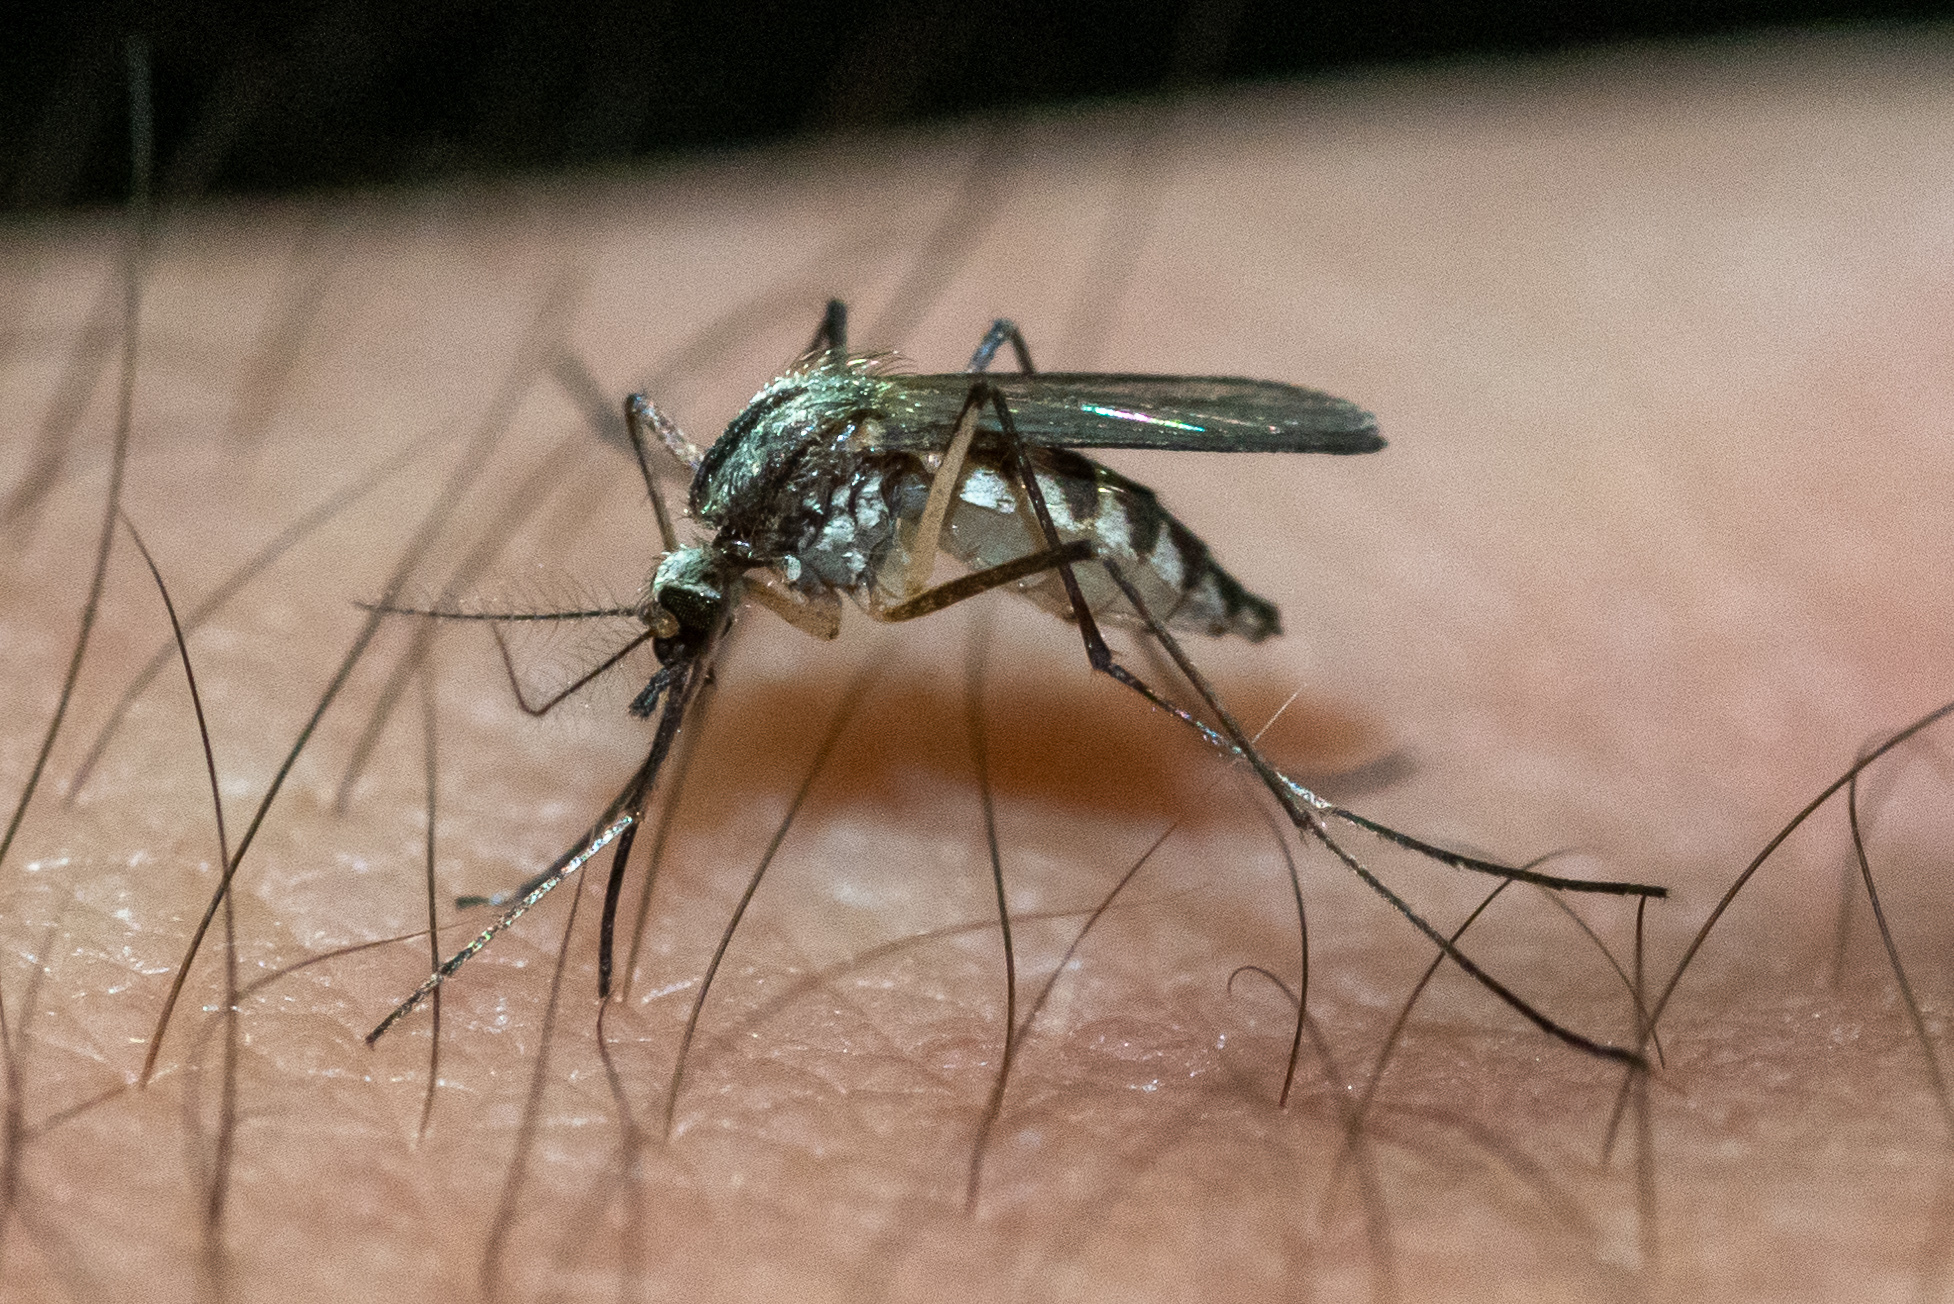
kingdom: Animalia
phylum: Arthropoda
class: Insecta
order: Diptera
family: Culicidae
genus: Aedes
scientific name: Aedes trivittatus
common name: Plains floodwater mosquito
